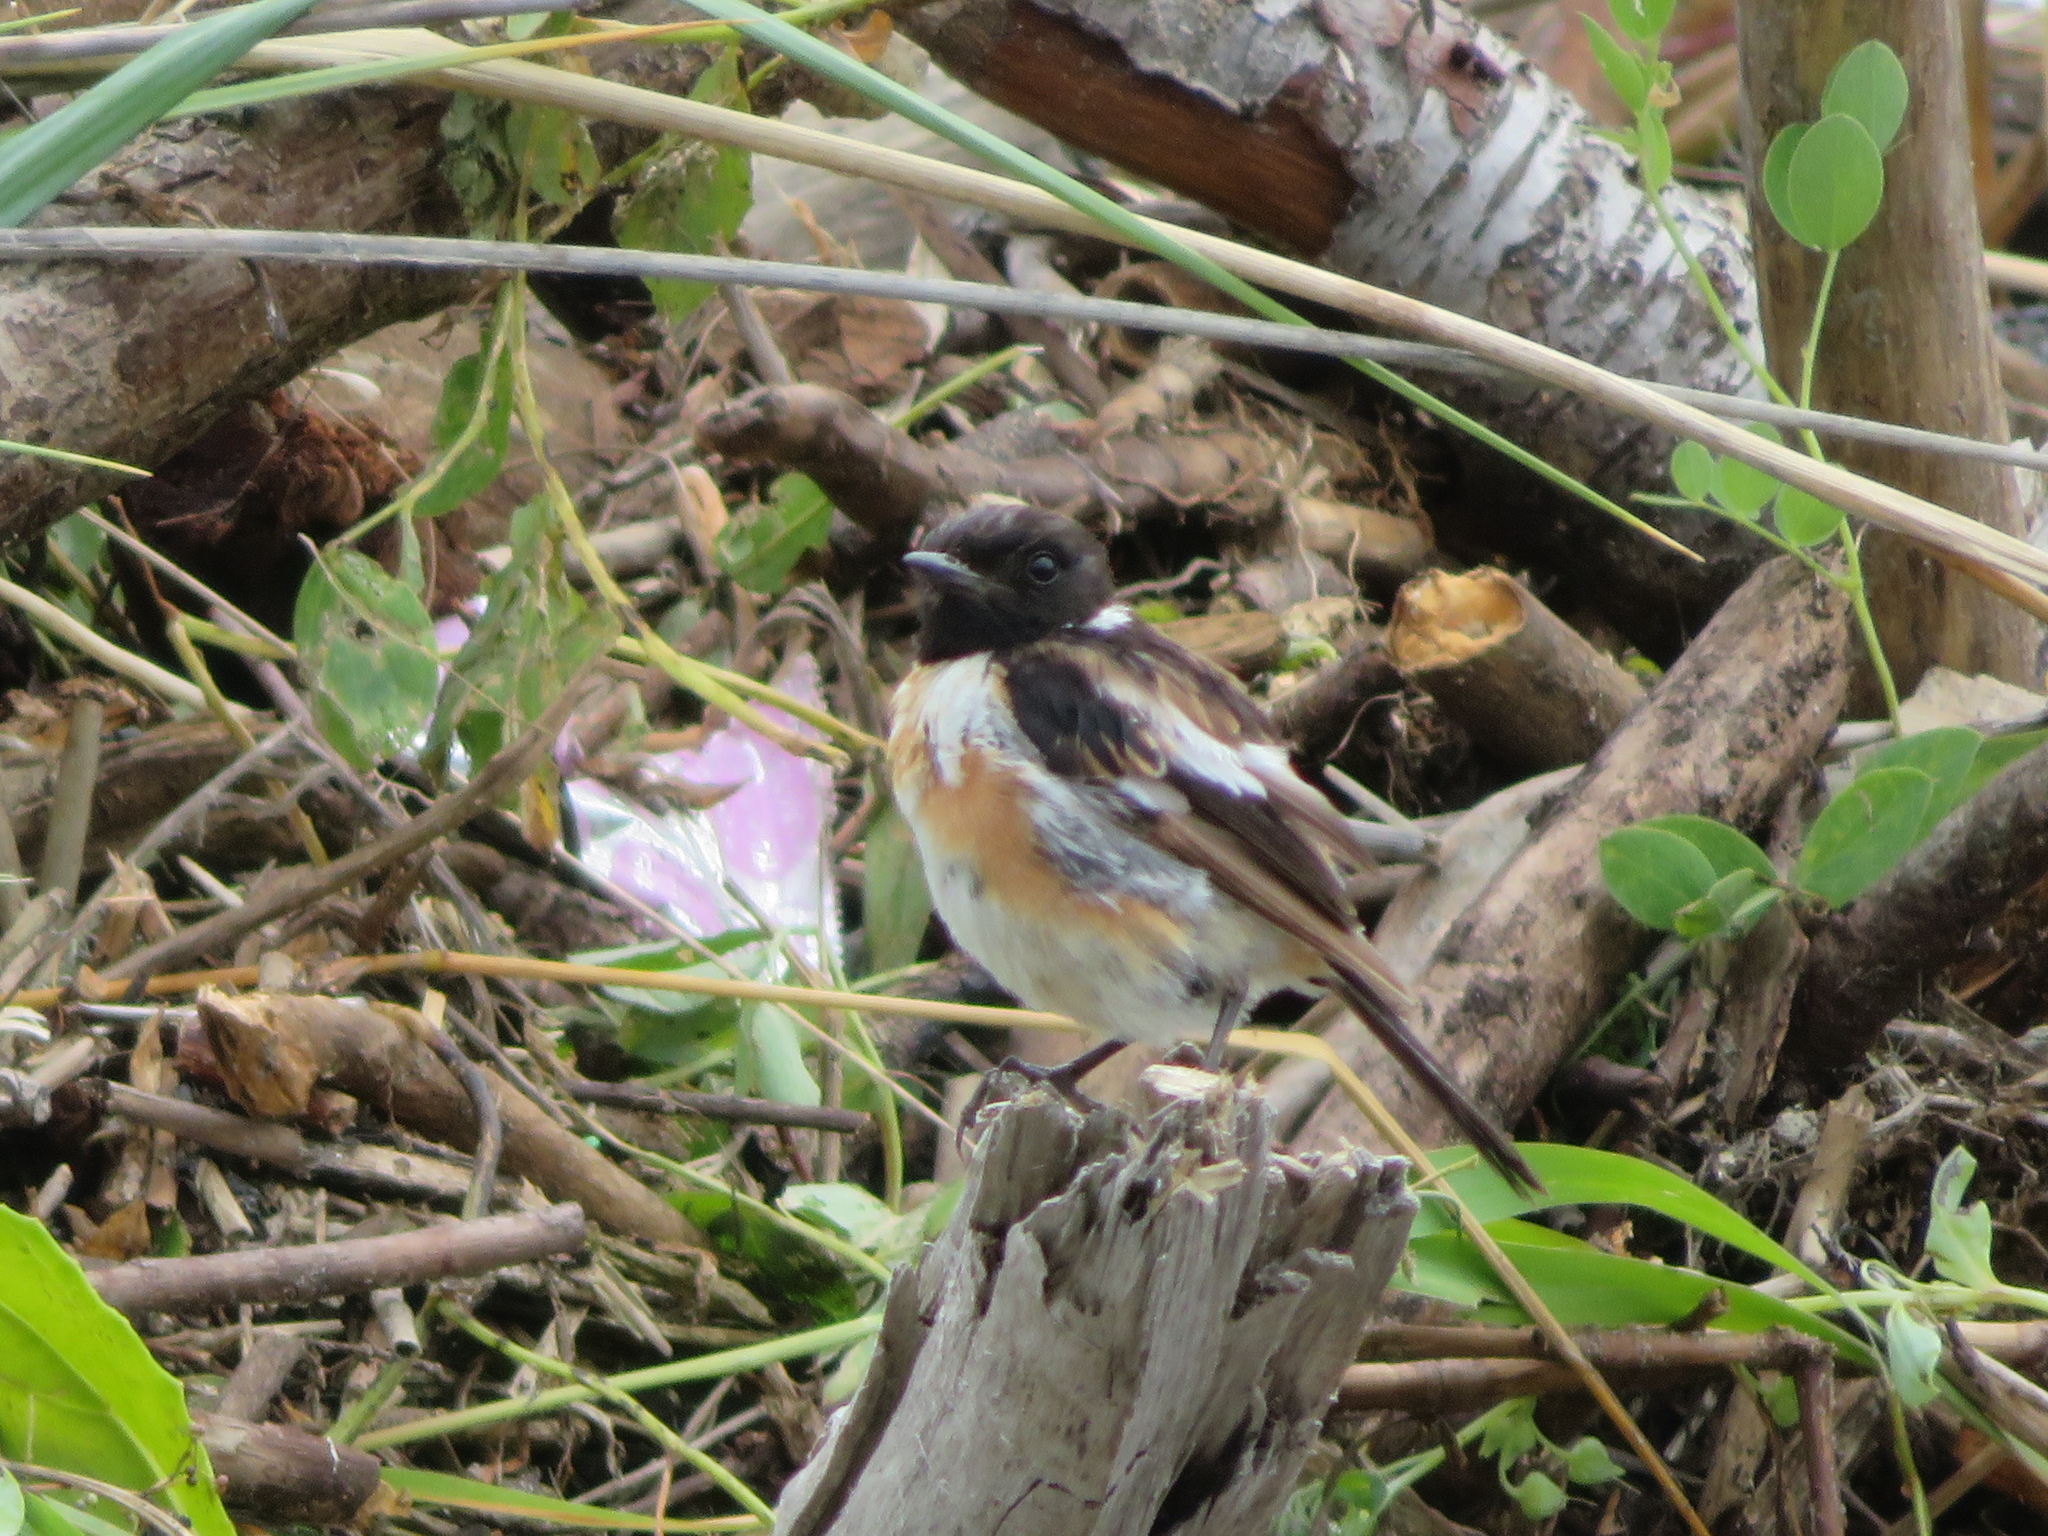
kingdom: Animalia
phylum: Chordata
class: Aves
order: Passeriformes
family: Muscicapidae
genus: Saxicola
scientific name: Saxicola stejnegeri
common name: Stejneger's stonechat
